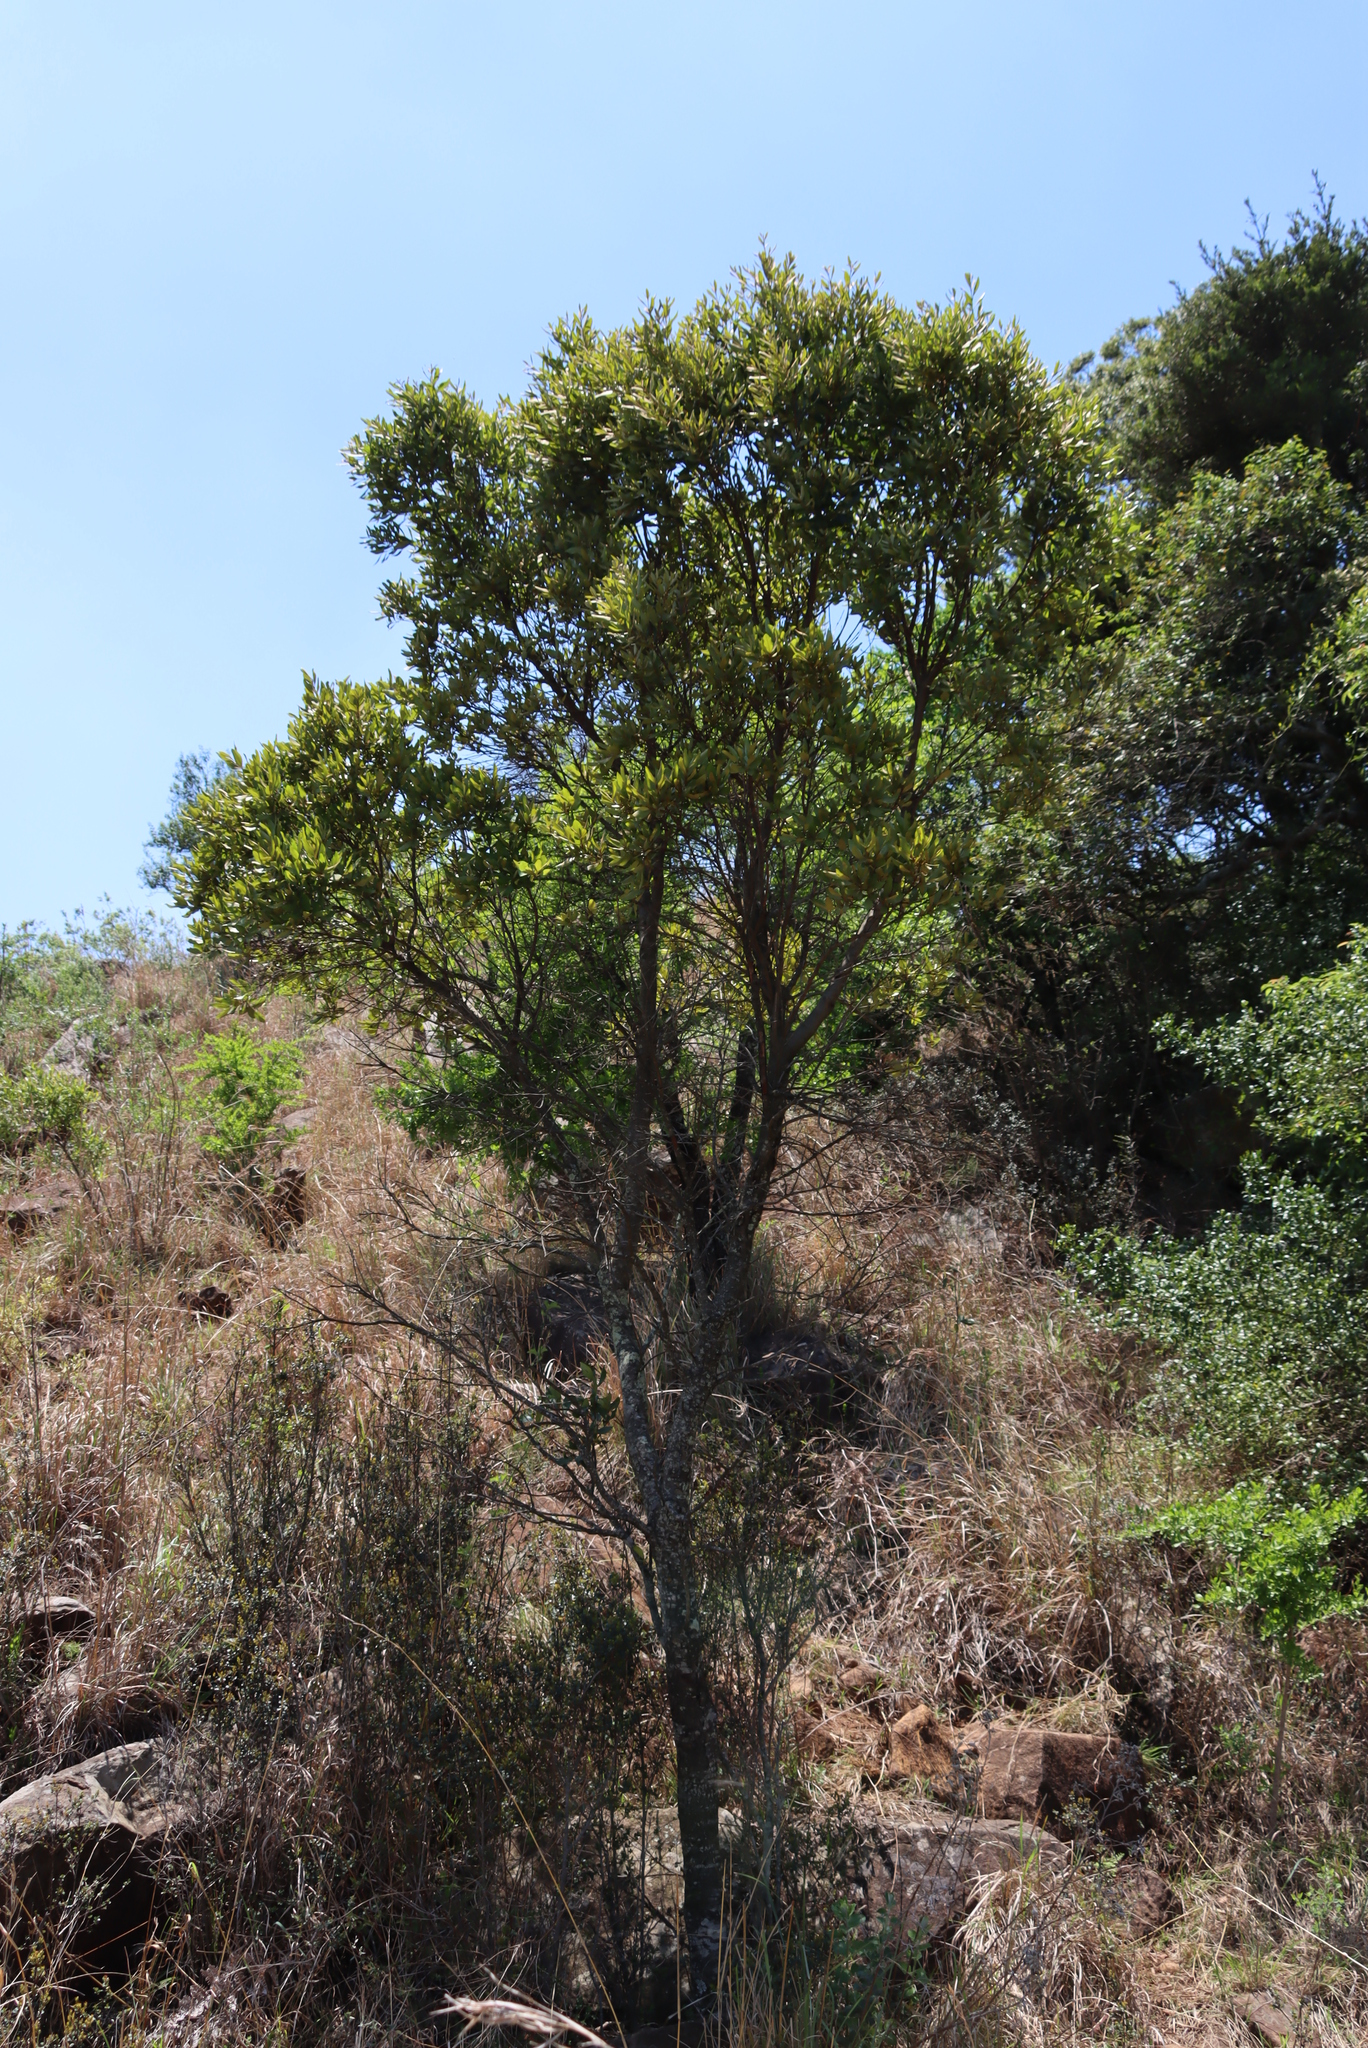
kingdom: Plantae
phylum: Tracheophyta
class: Magnoliopsida
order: Ericales
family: Ebenaceae
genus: Euclea
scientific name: Euclea undulata
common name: Small-leaved guarri
